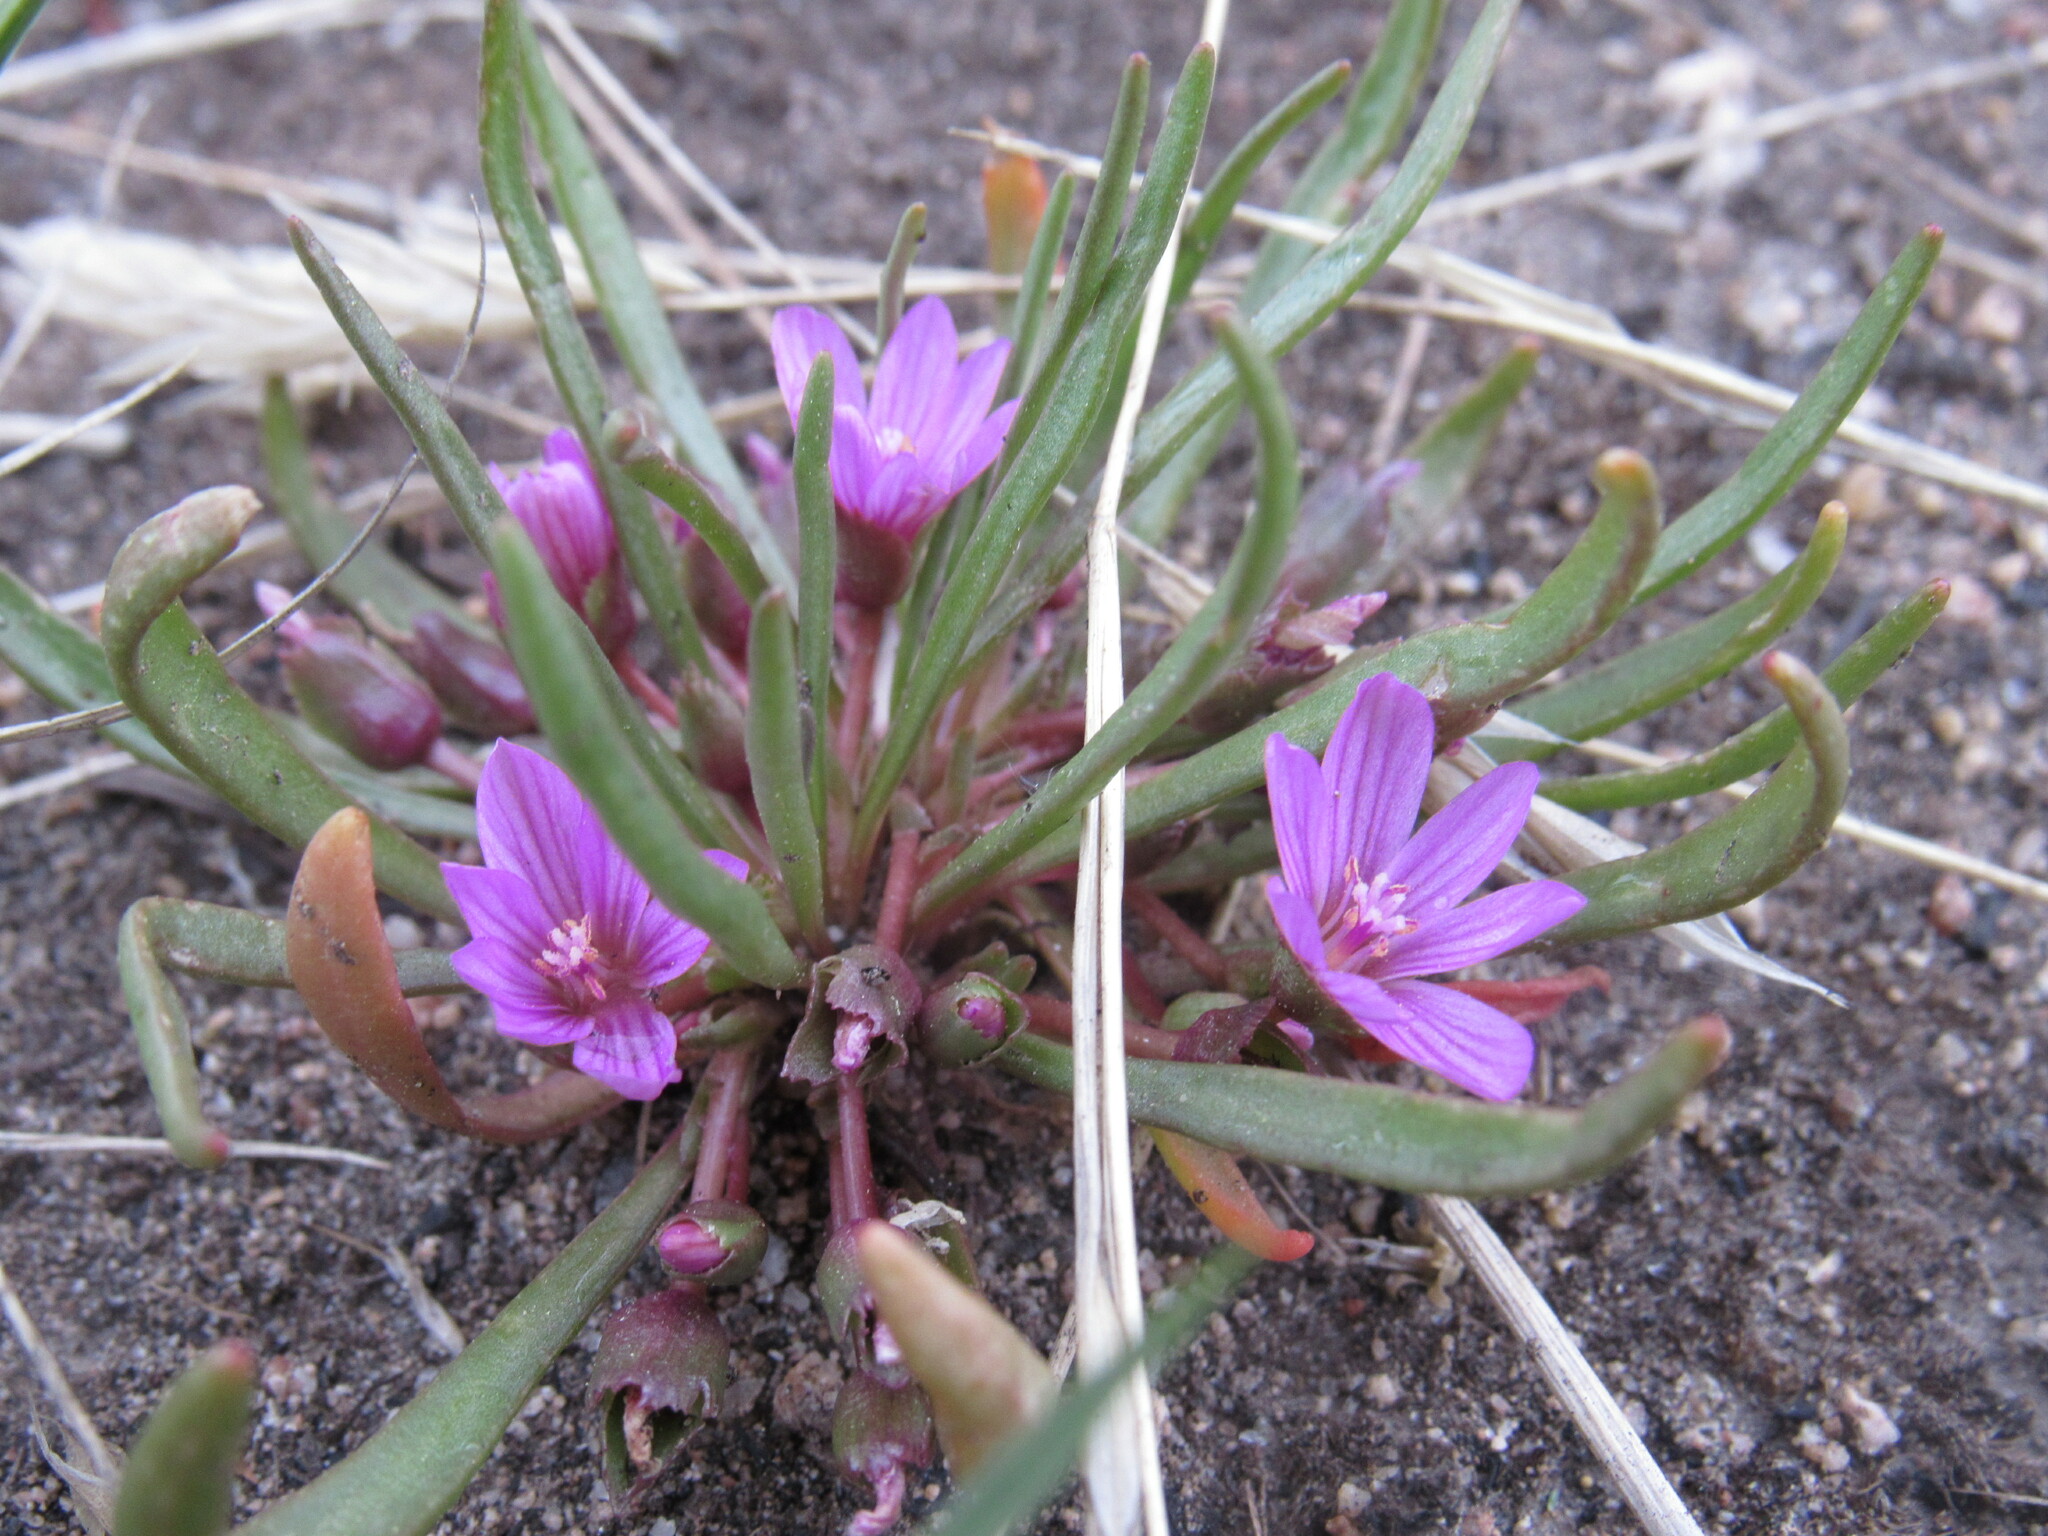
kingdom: Plantae
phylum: Tracheophyta
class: Magnoliopsida
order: Caryophyllales
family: Montiaceae
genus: Lewisia
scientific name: Lewisia pygmaea
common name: Alpine bitterroot
